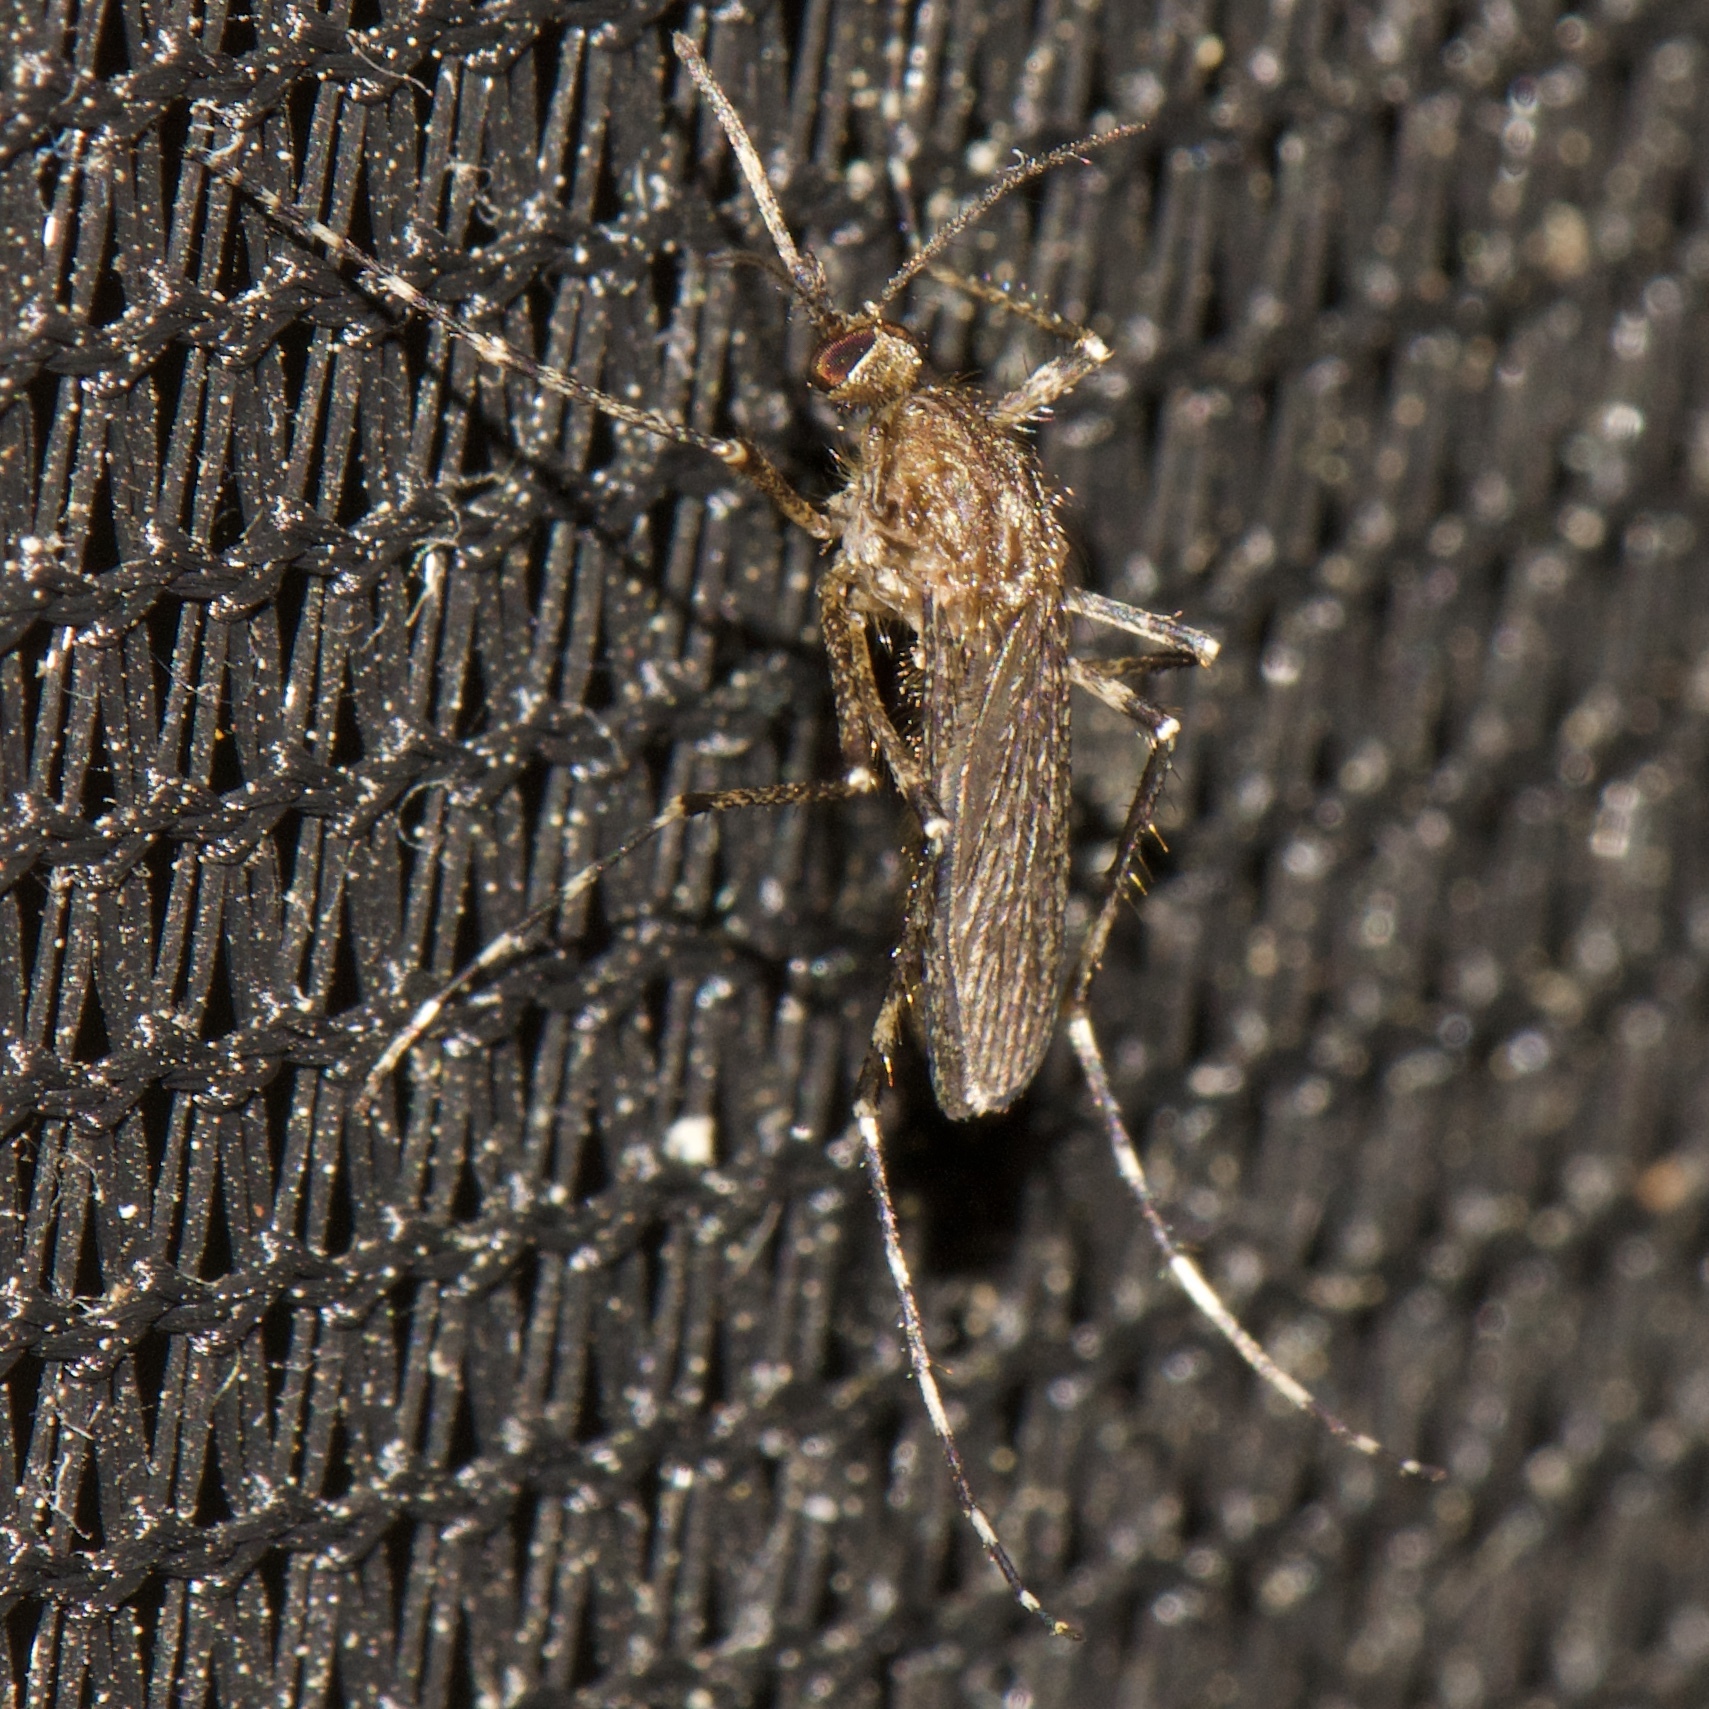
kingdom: Animalia
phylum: Arthropoda
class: Insecta
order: Diptera
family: Culicidae
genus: Coquillettidia
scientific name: Coquillettidia perturbans
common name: Cattail mosquito
